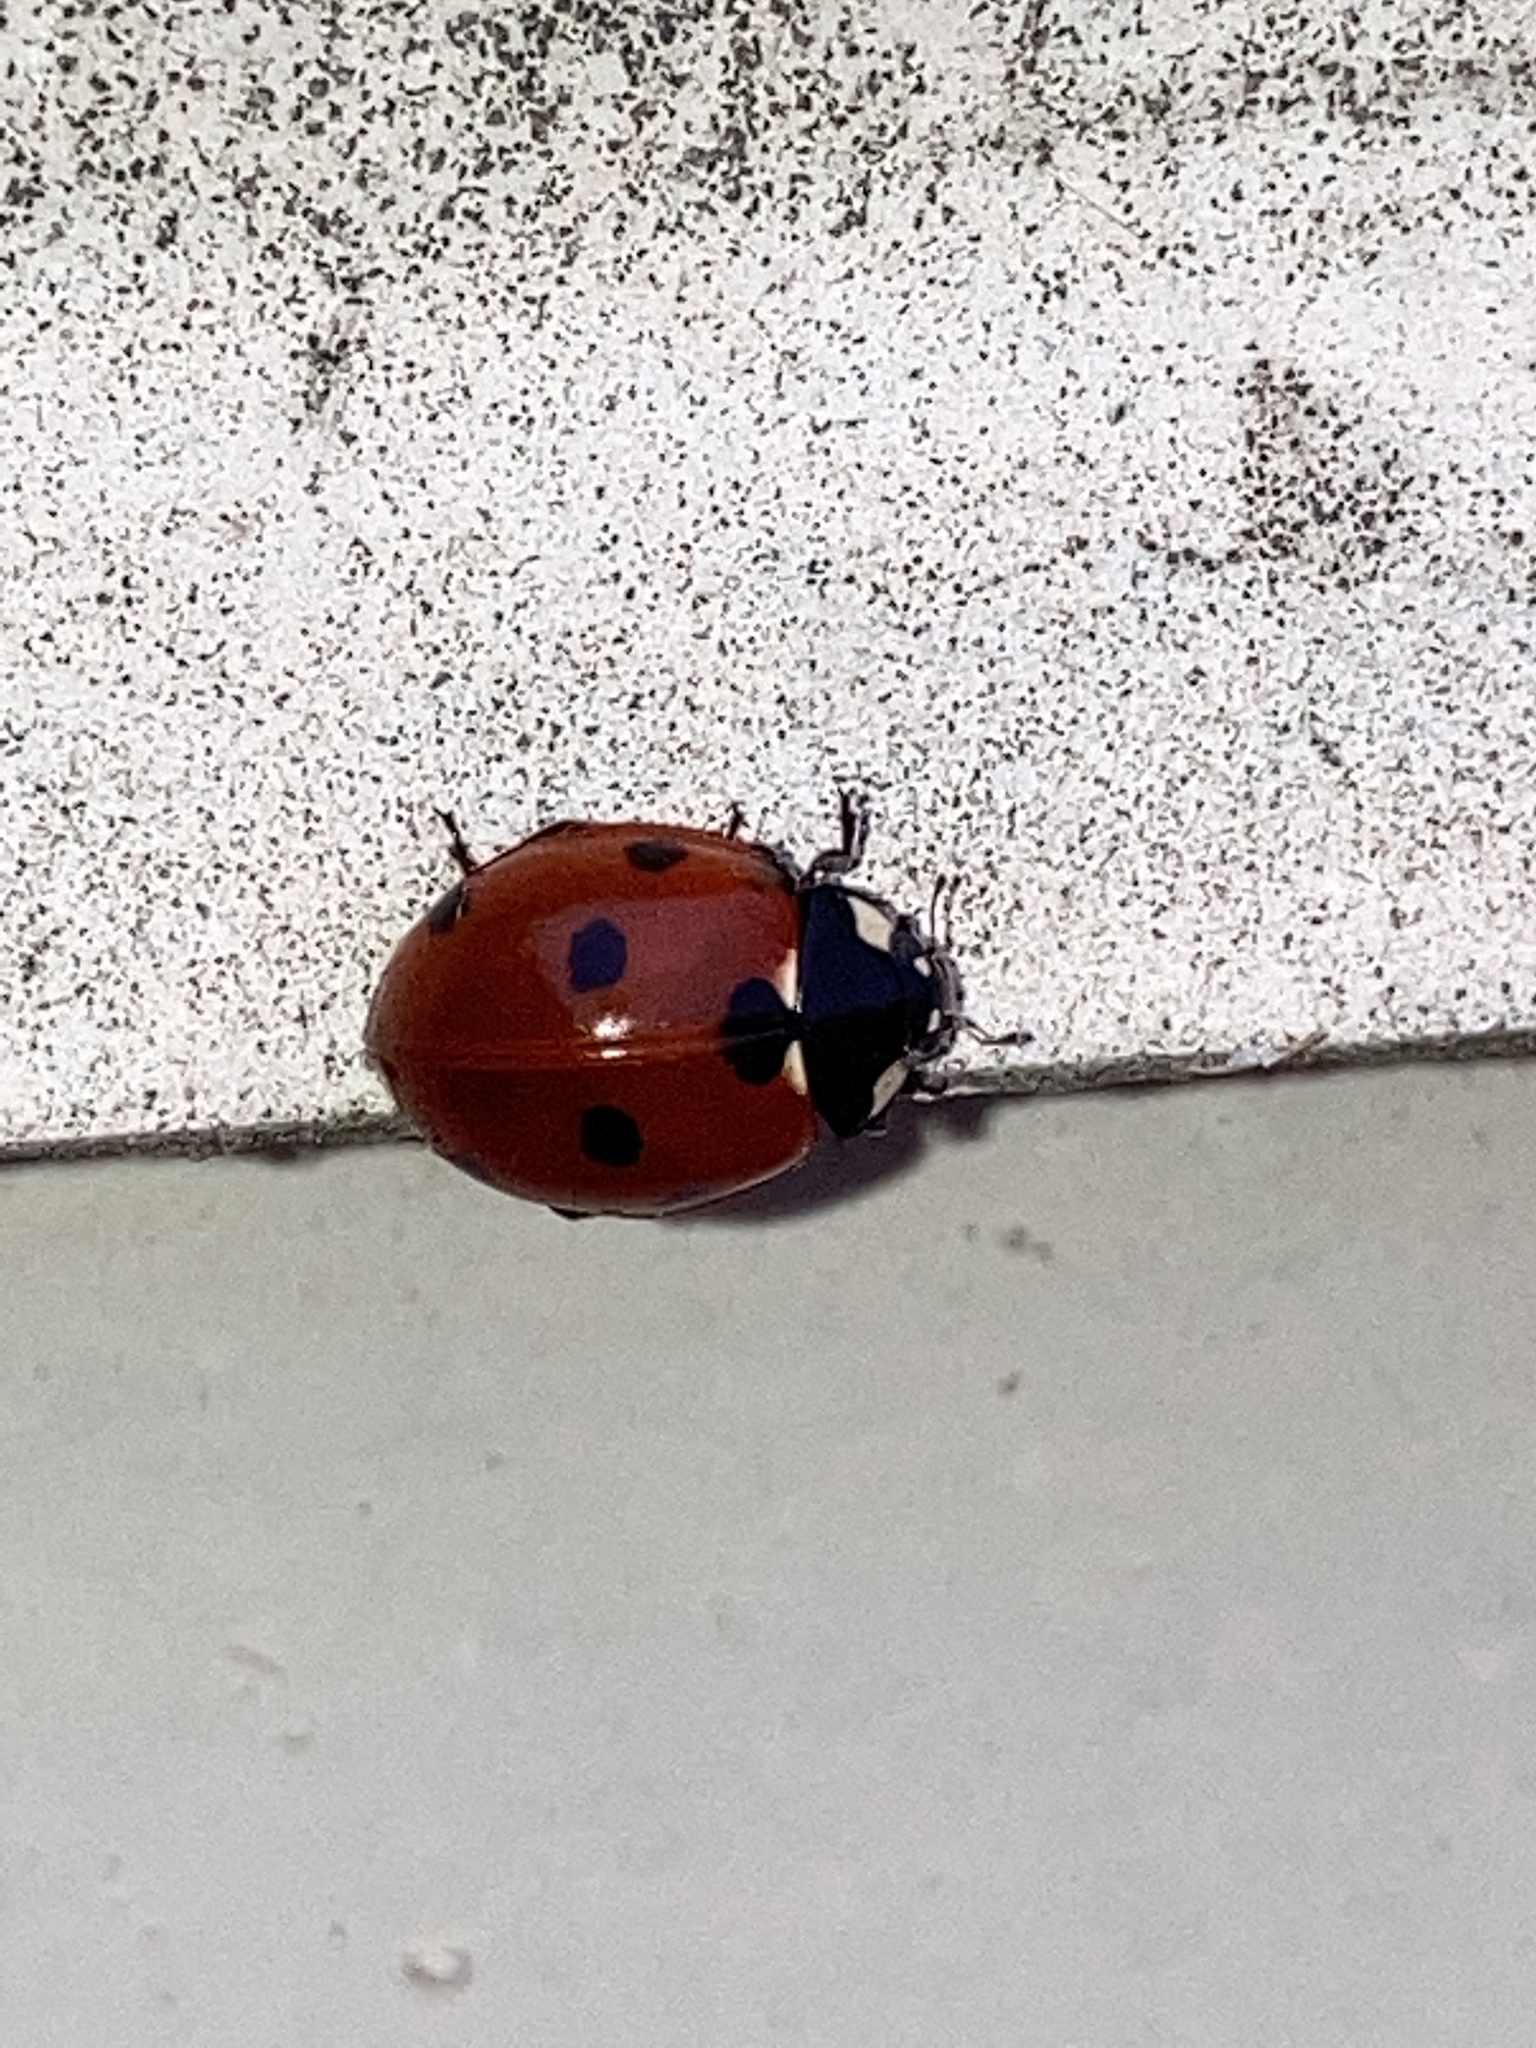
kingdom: Animalia
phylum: Arthropoda
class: Insecta
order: Coleoptera
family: Coccinellidae
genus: Coccinella
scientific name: Coccinella septempunctata
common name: Sevenspotted lady beetle
